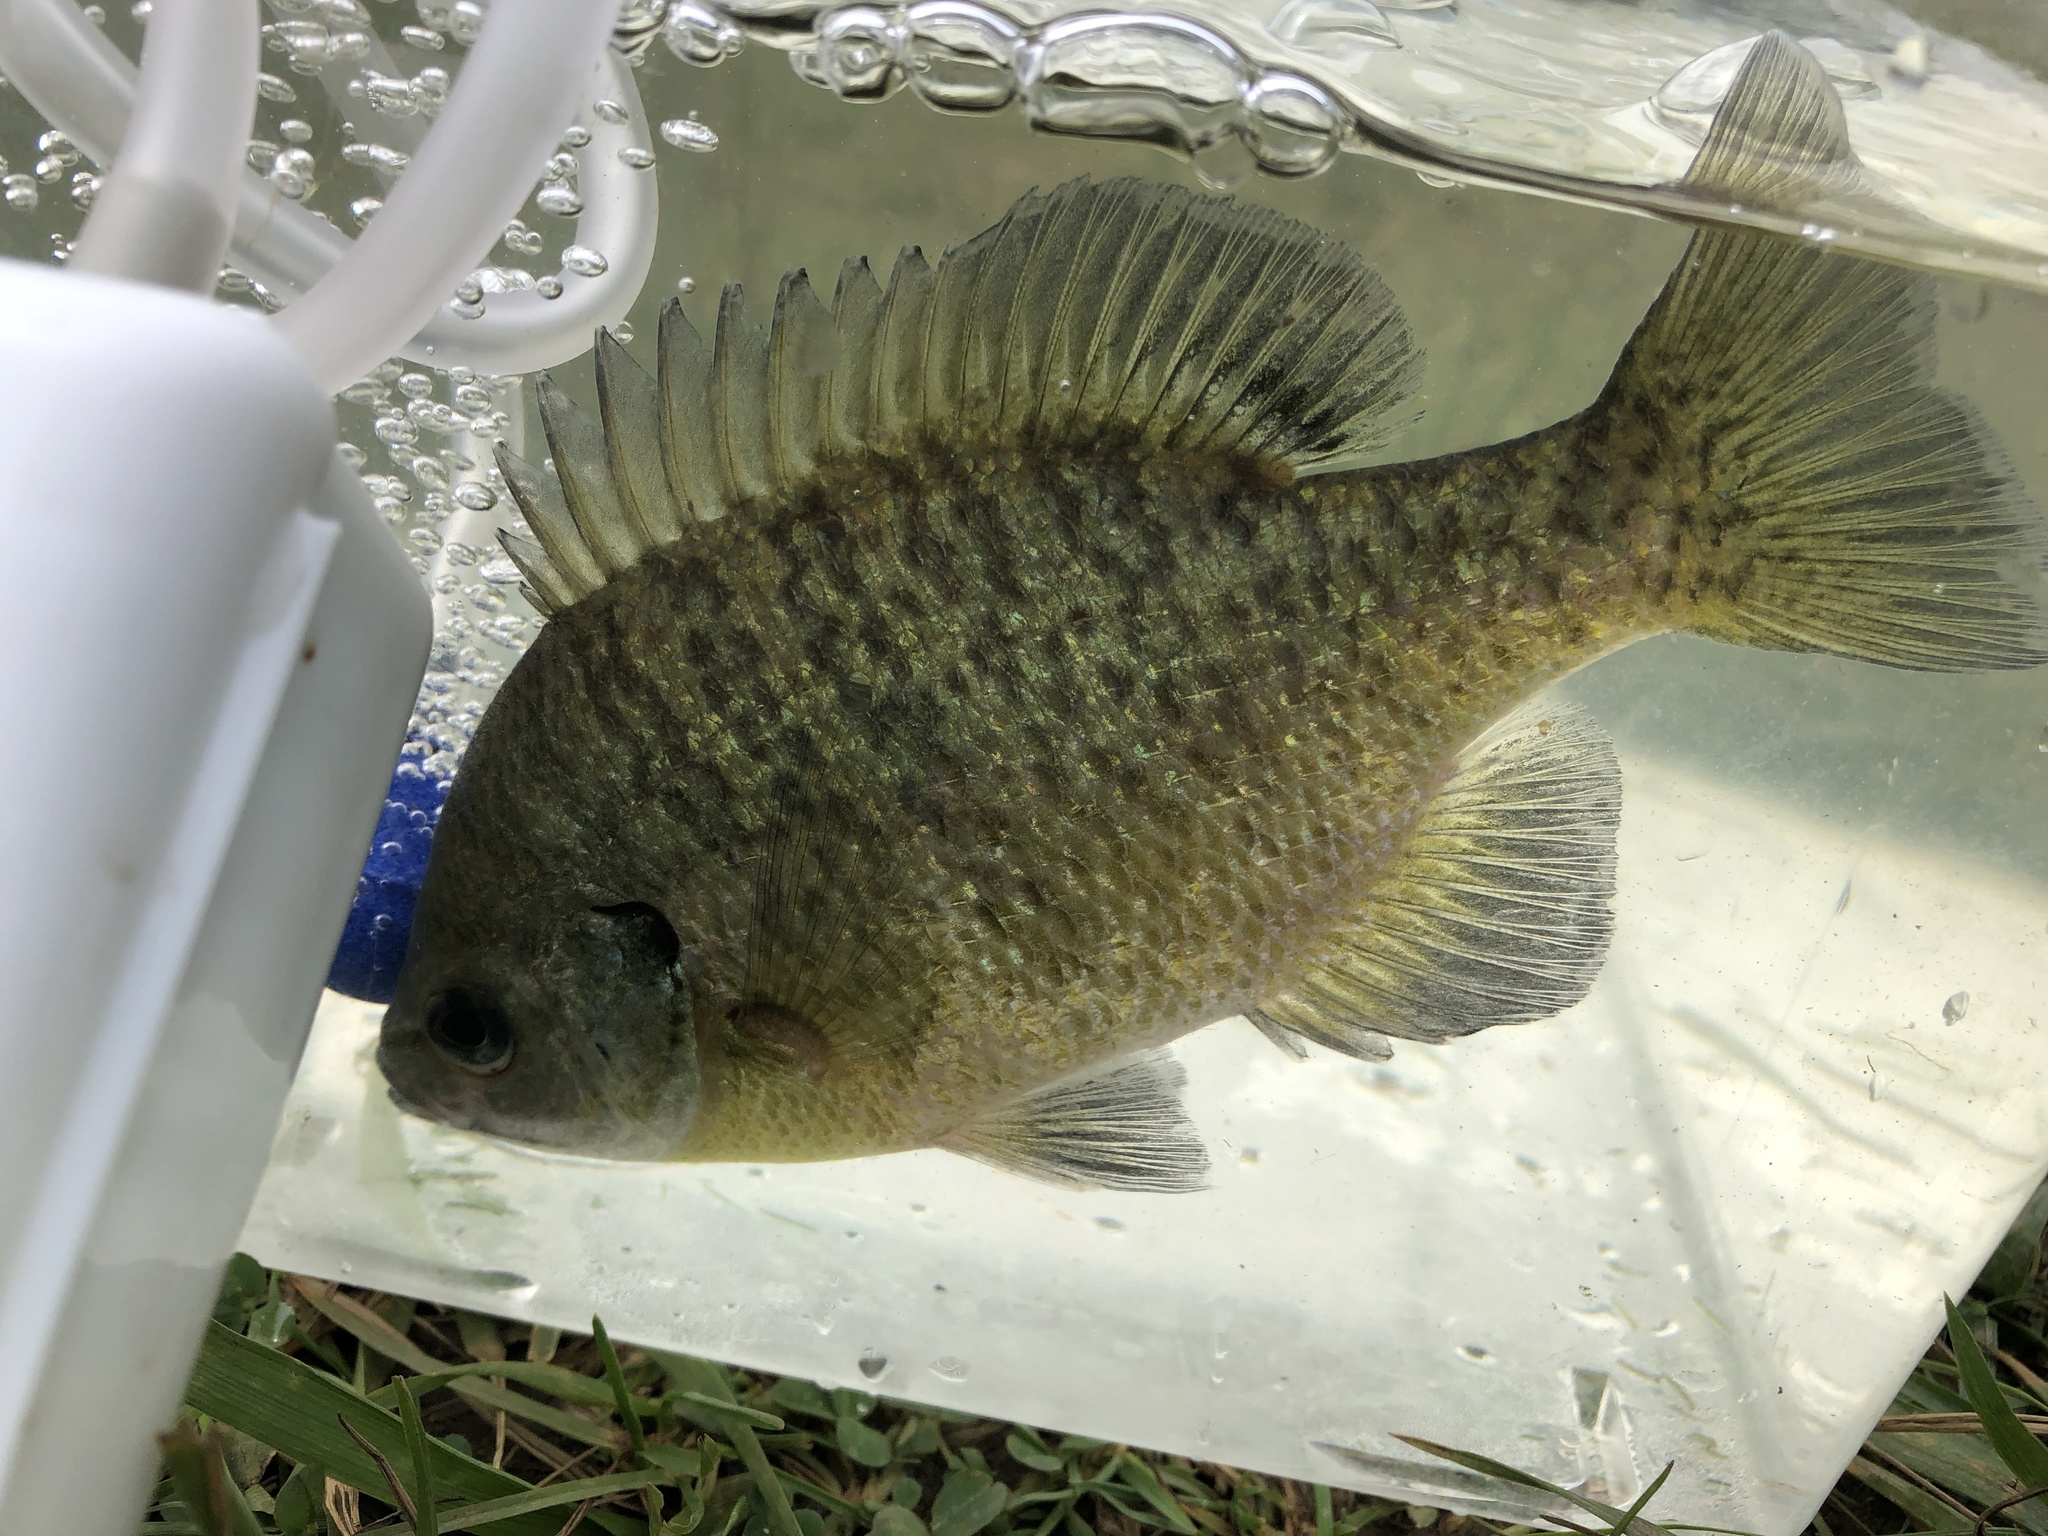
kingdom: Animalia
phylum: Chordata
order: Perciformes
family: Centrarchidae
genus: Lepomis
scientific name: Lepomis macrochirus
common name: Bluegill
